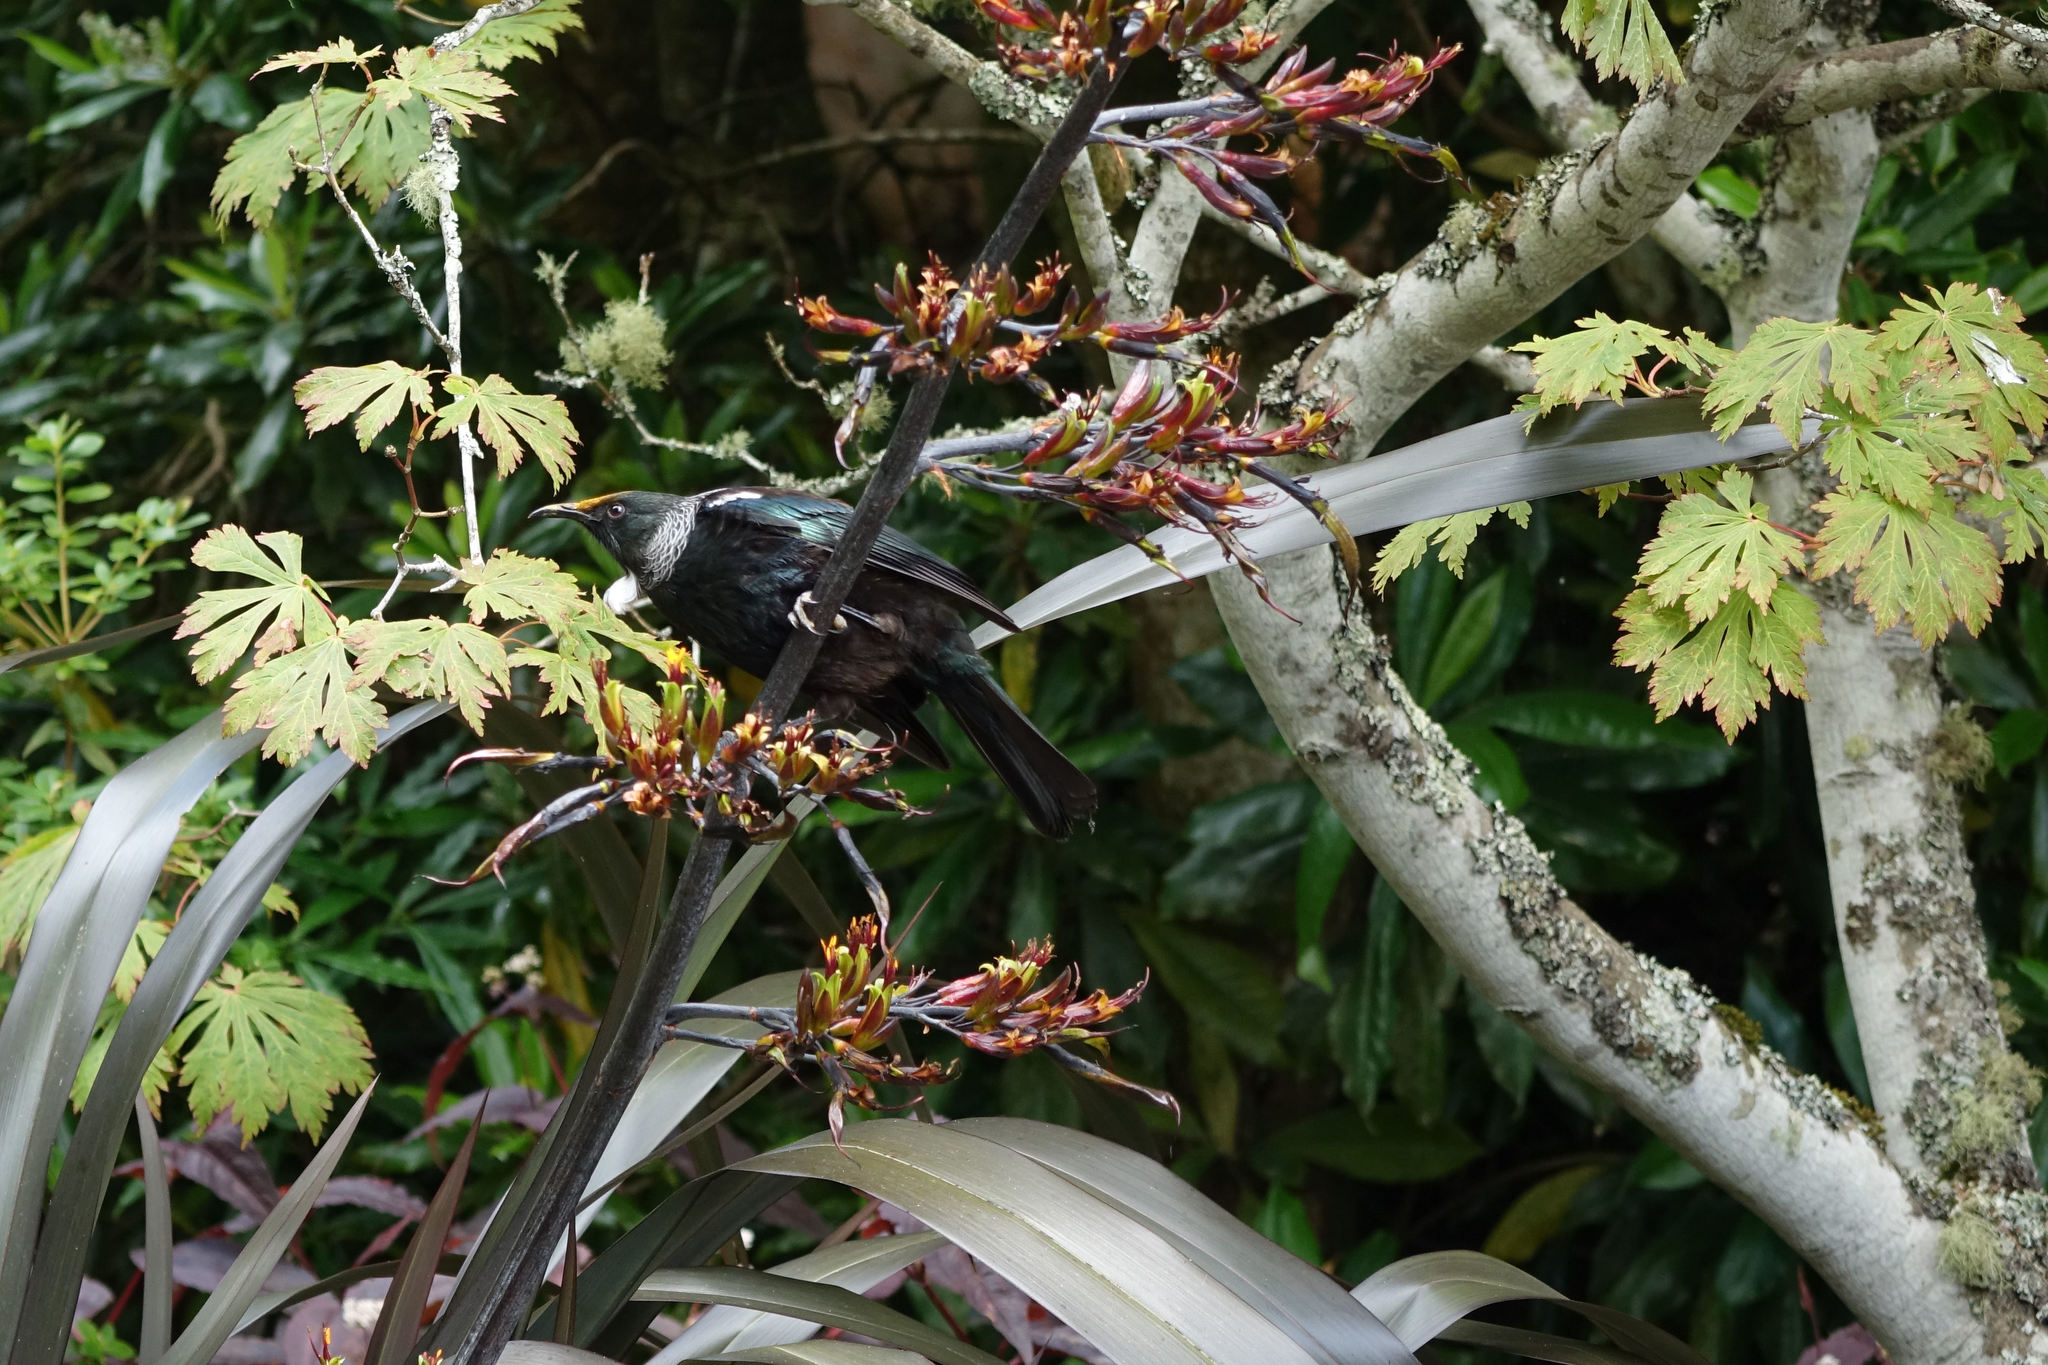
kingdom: Animalia
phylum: Chordata
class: Aves
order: Passeriformes
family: Meliphagidae
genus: Prosthemadera
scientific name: Prosthemadera novaeseelandiae
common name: Tui
